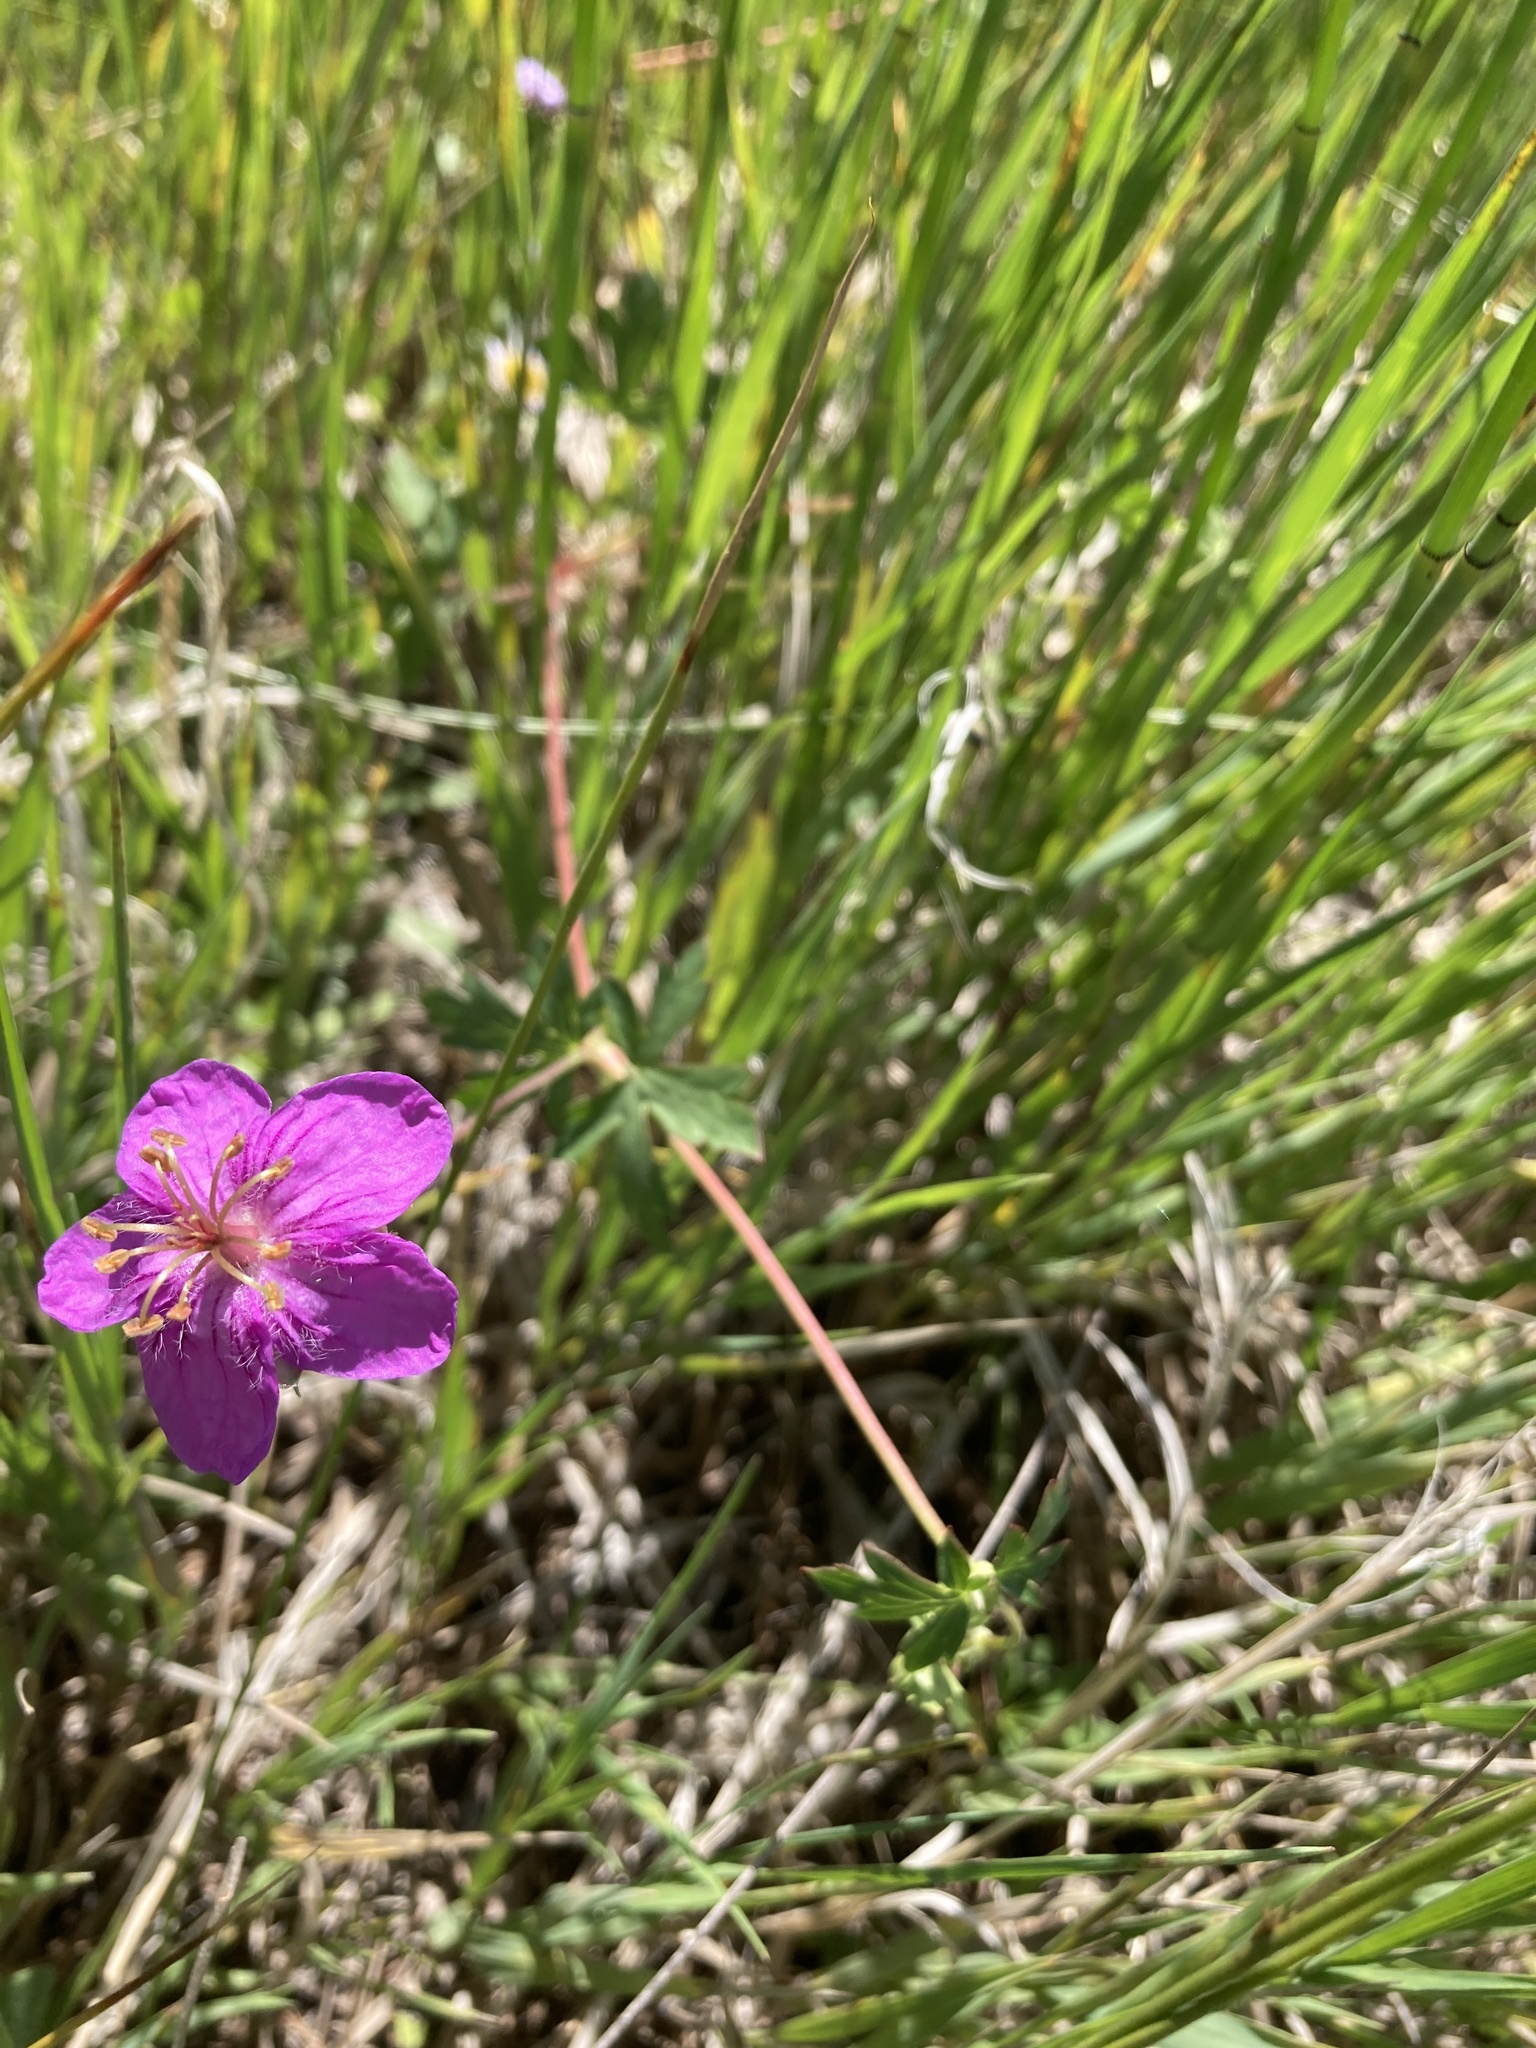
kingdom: Plantae
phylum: Tracheophyta
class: Magnoliopsida
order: Geraniales
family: Geraniaceae
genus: Geranium
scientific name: Geranium caespitosum
